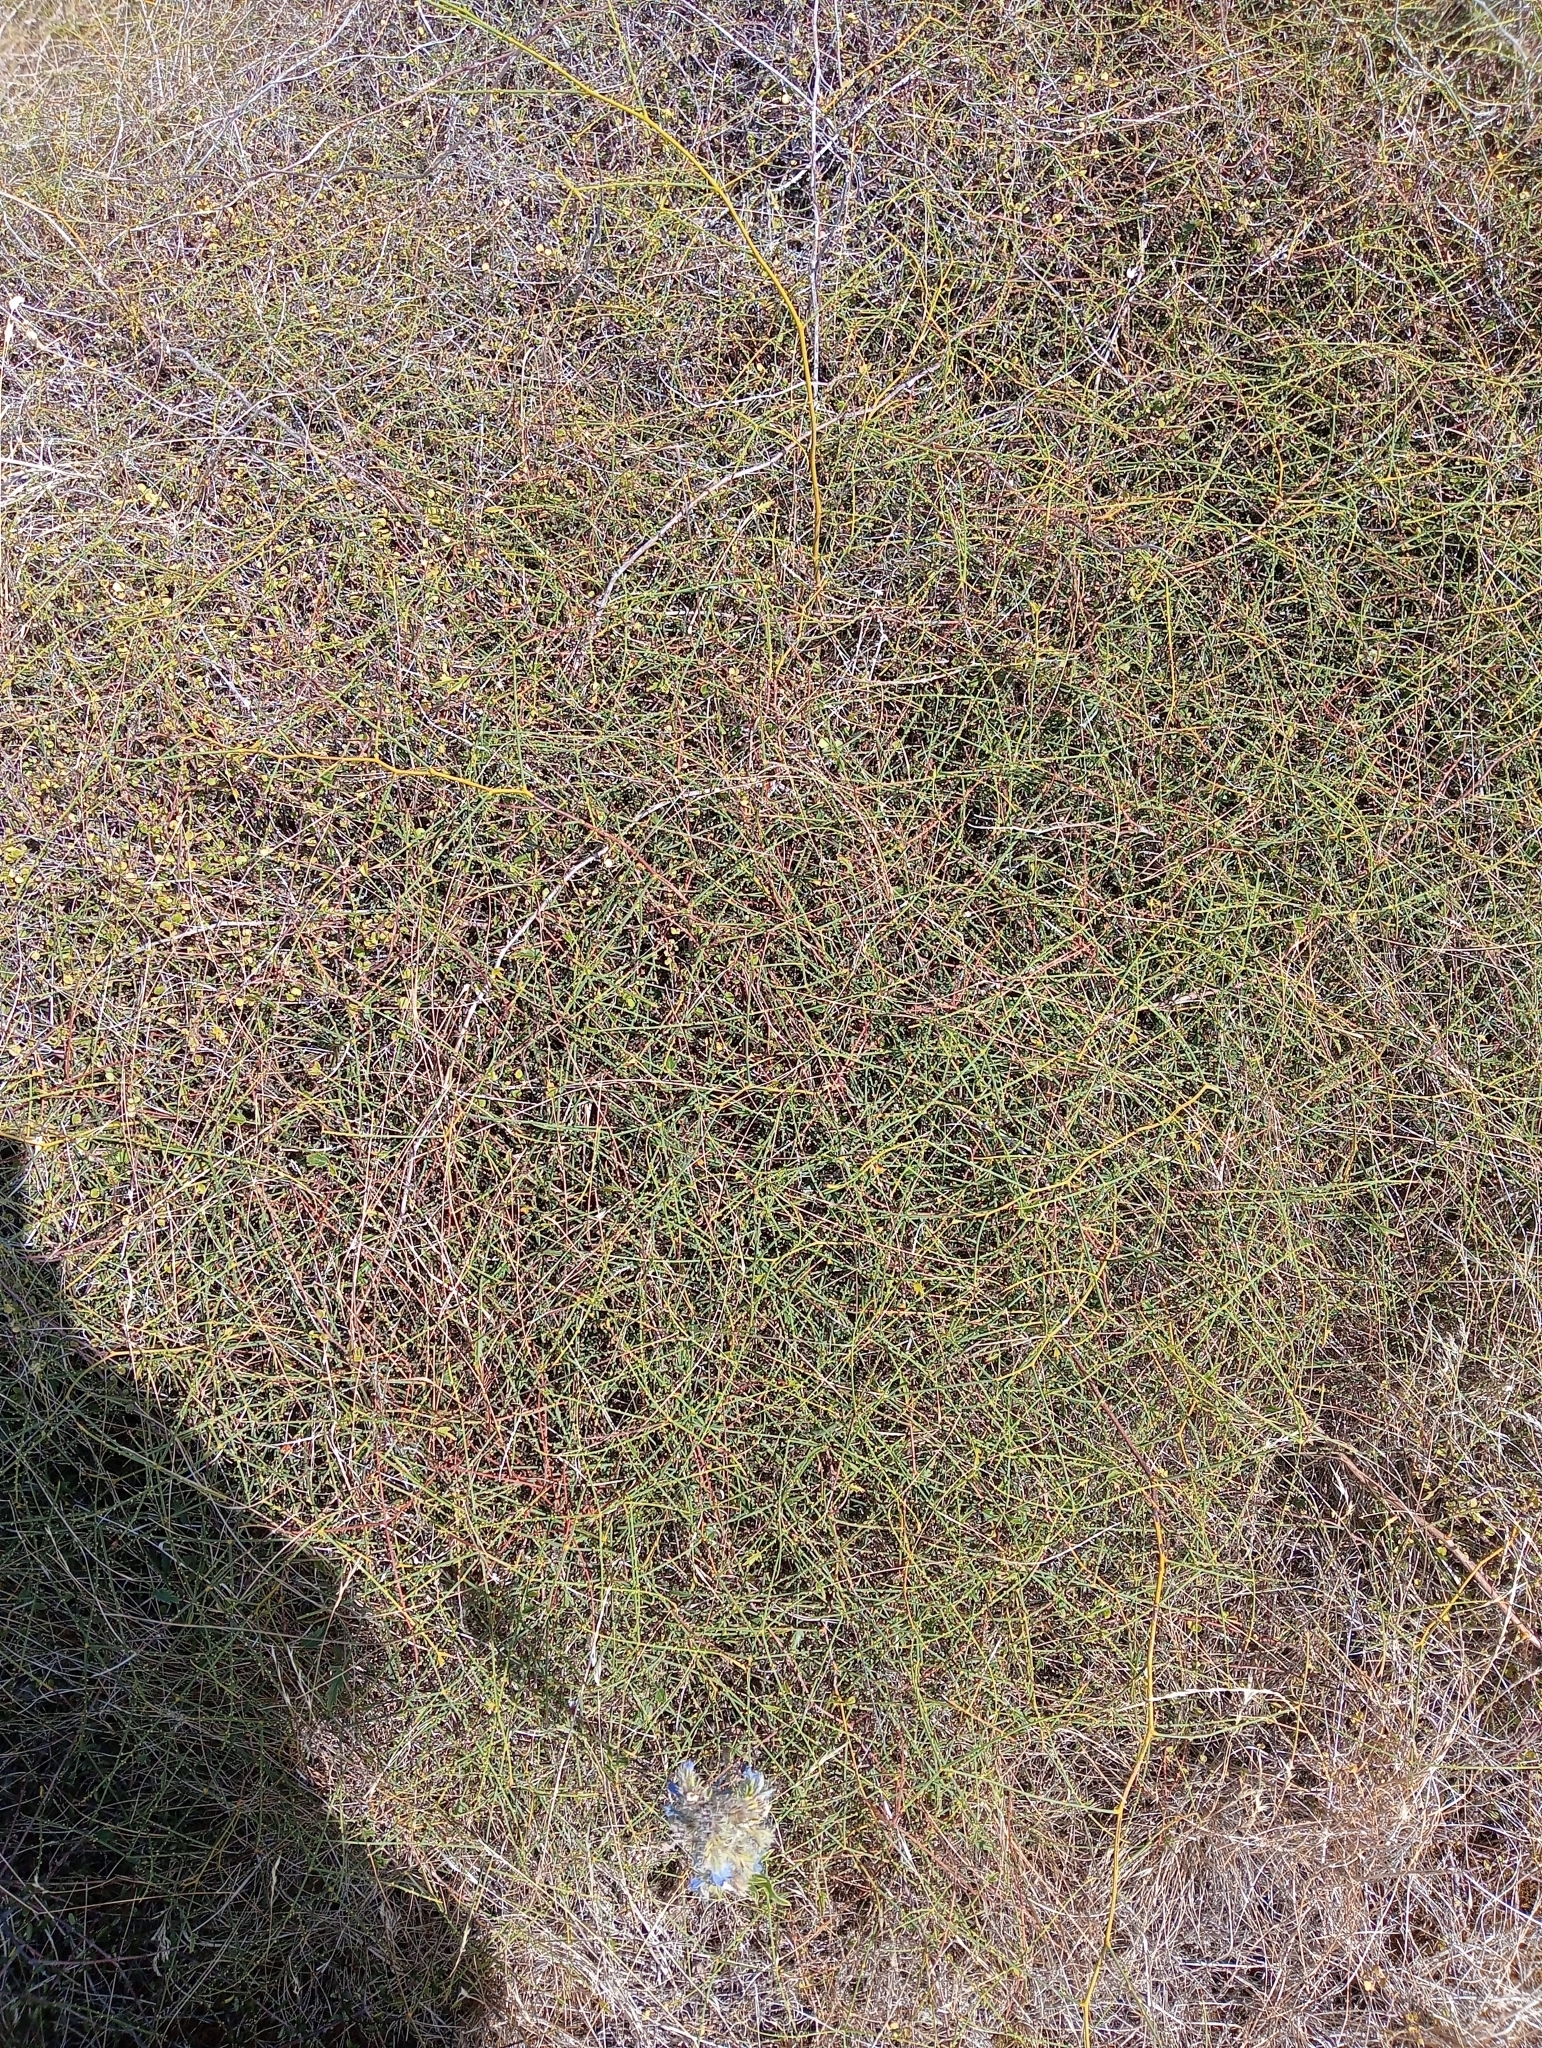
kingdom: Plantae
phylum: Tracheophyta
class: Magnoliopsida
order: Rosales
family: Rosaceae
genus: Rubus
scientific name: Rubus squarrosus
